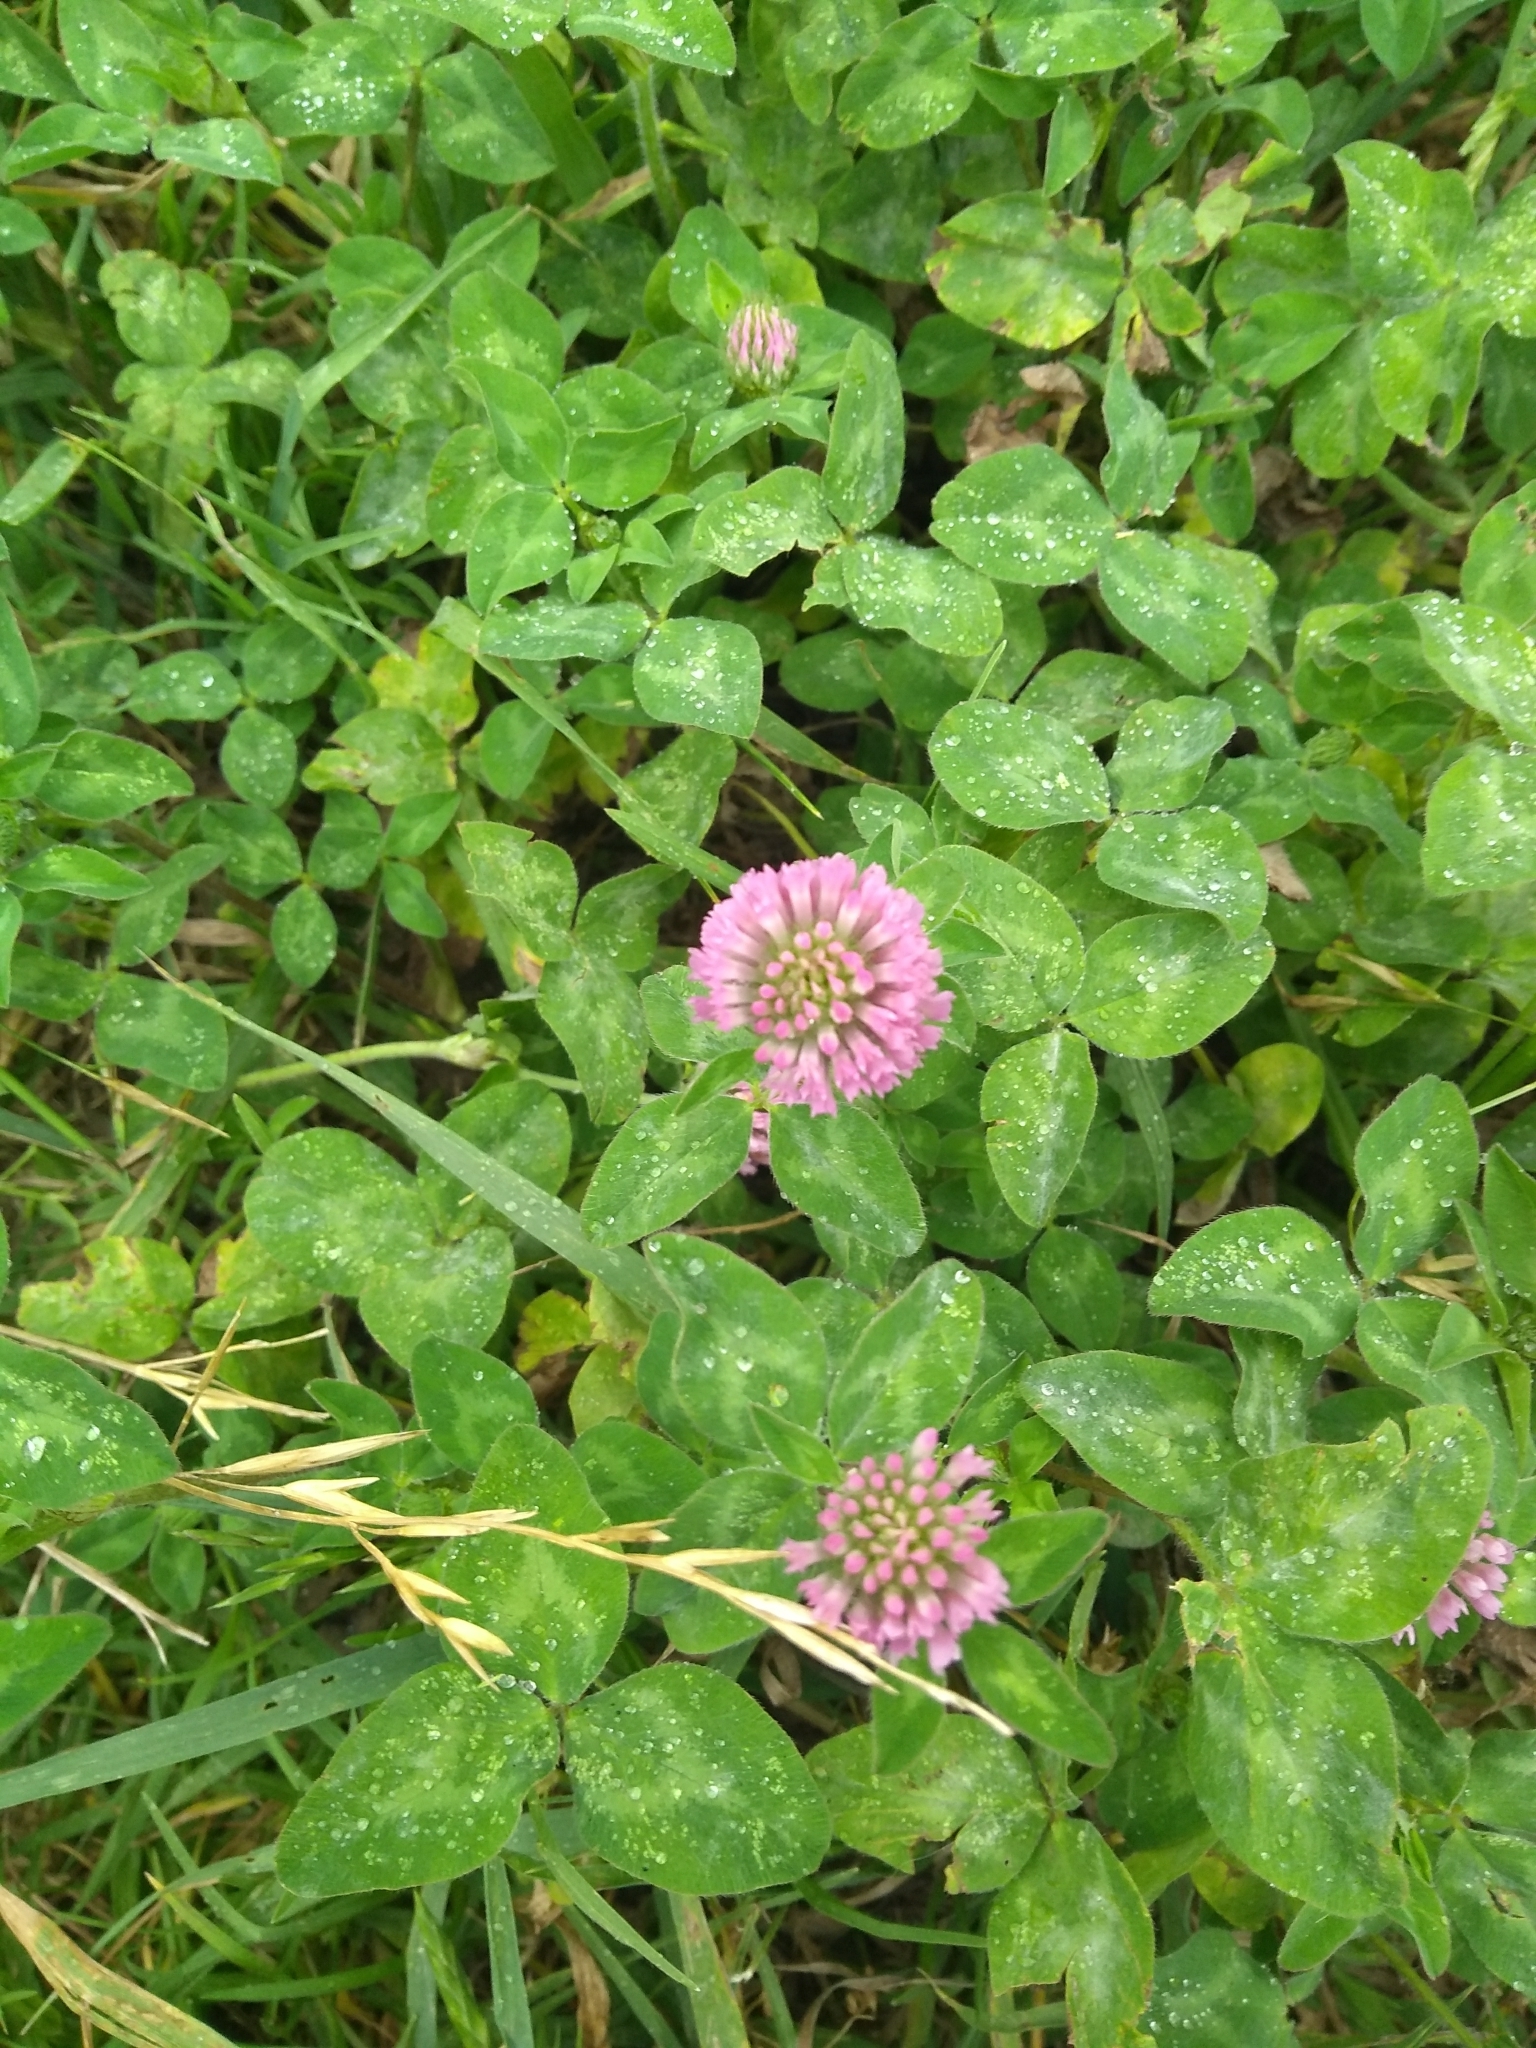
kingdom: Plantae
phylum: Tracheophyta
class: Magnoliopsida
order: Fabales
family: Fabaceae
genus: Trifolium
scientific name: Trifolium pratense
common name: Red clover
